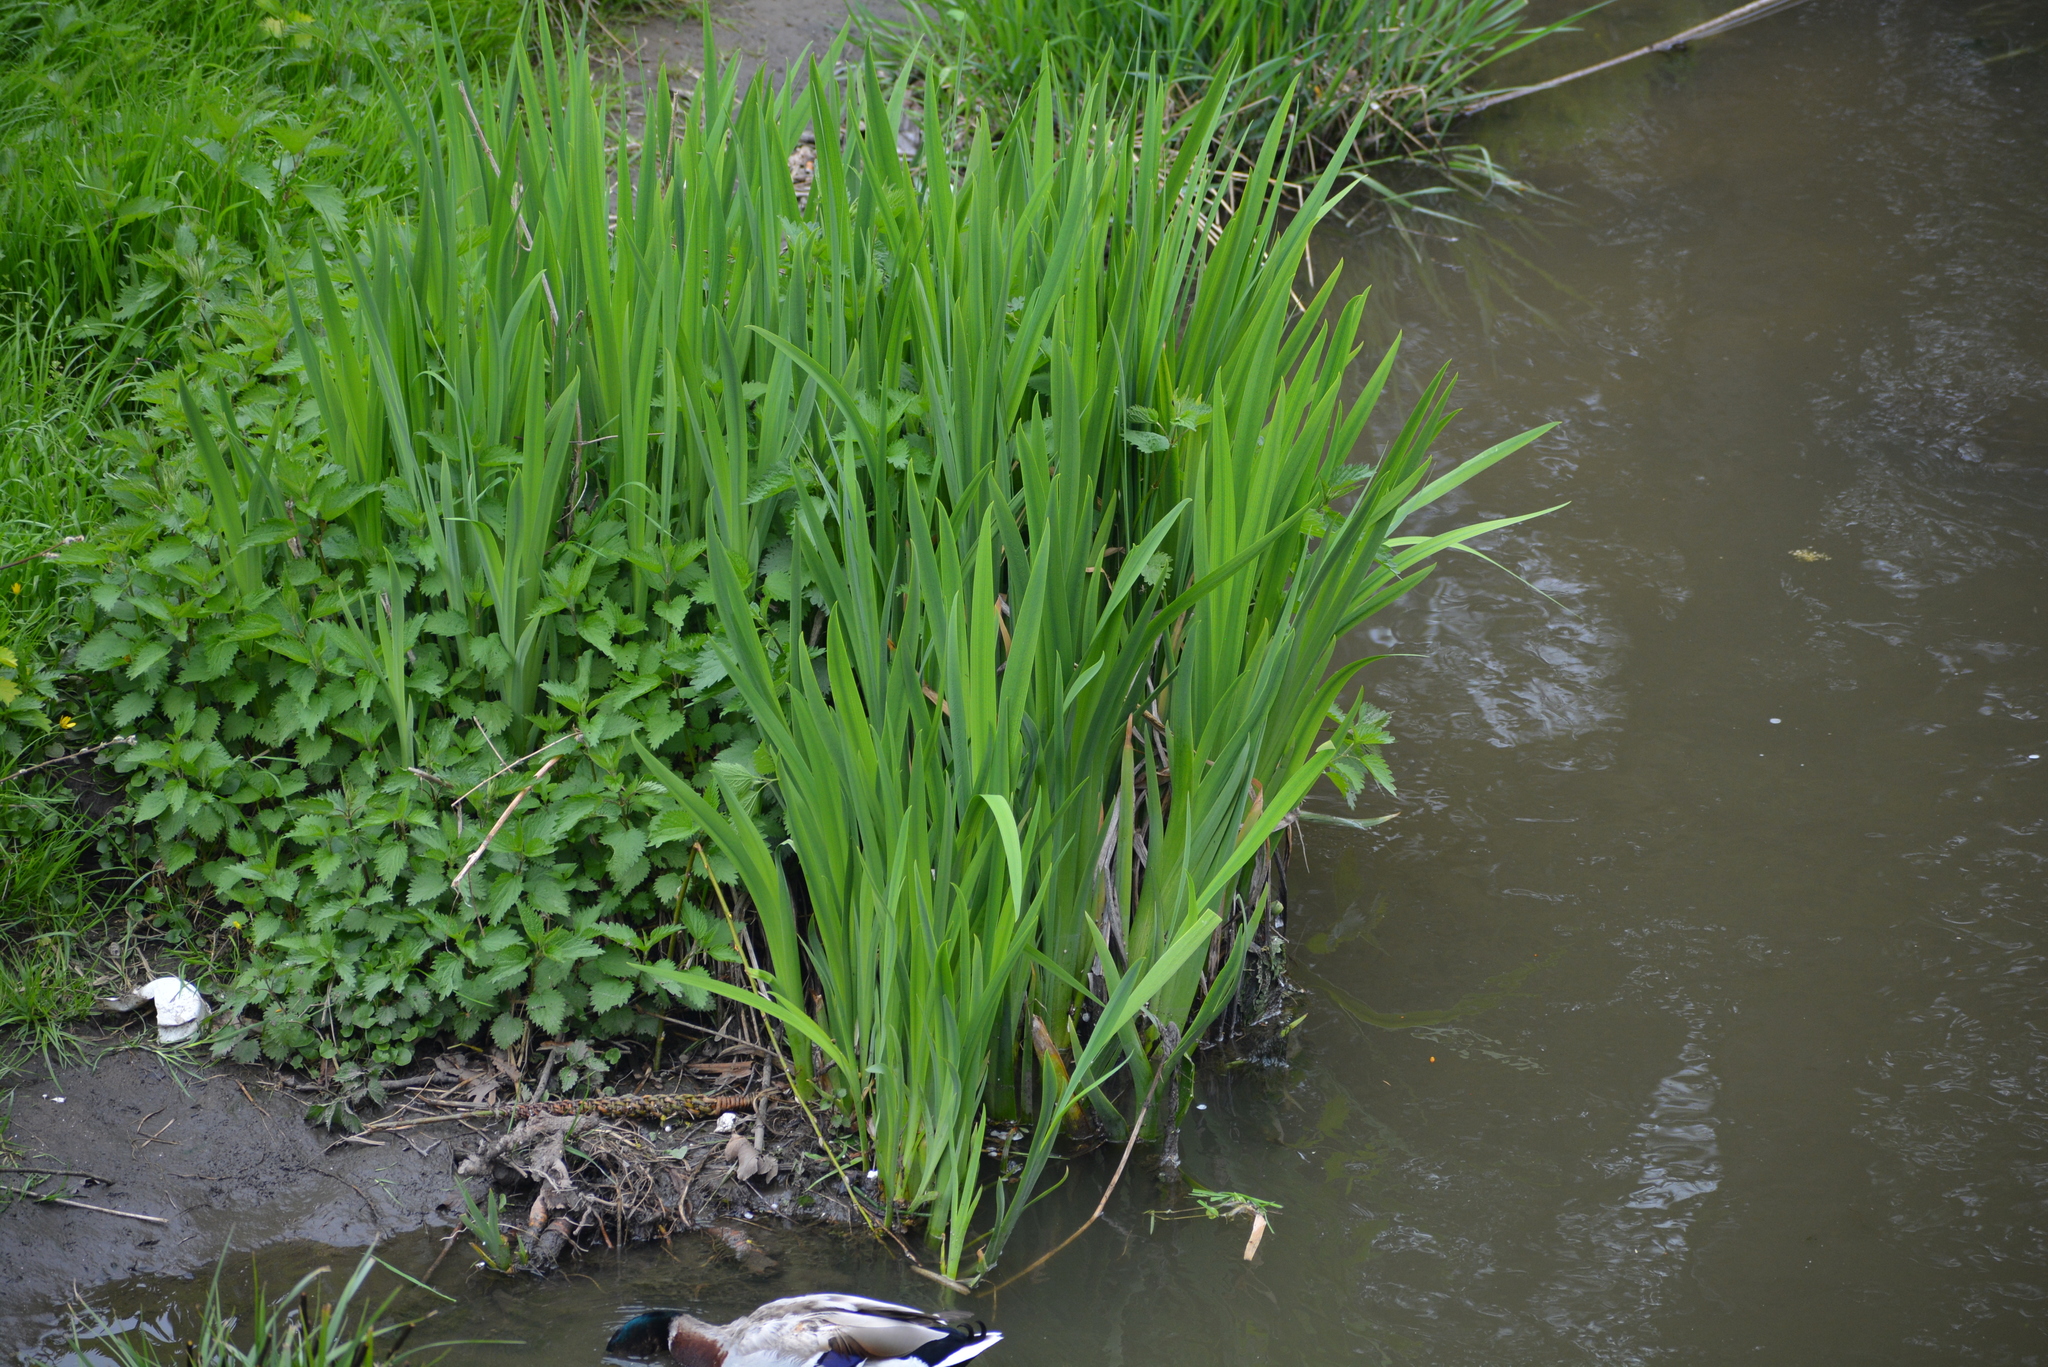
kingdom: Plantae
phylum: Tracheophyta
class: Liliopsida
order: Asparagales
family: Iridaceae
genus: Iris
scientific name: Iris pseudacorus
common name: Yellow flag
